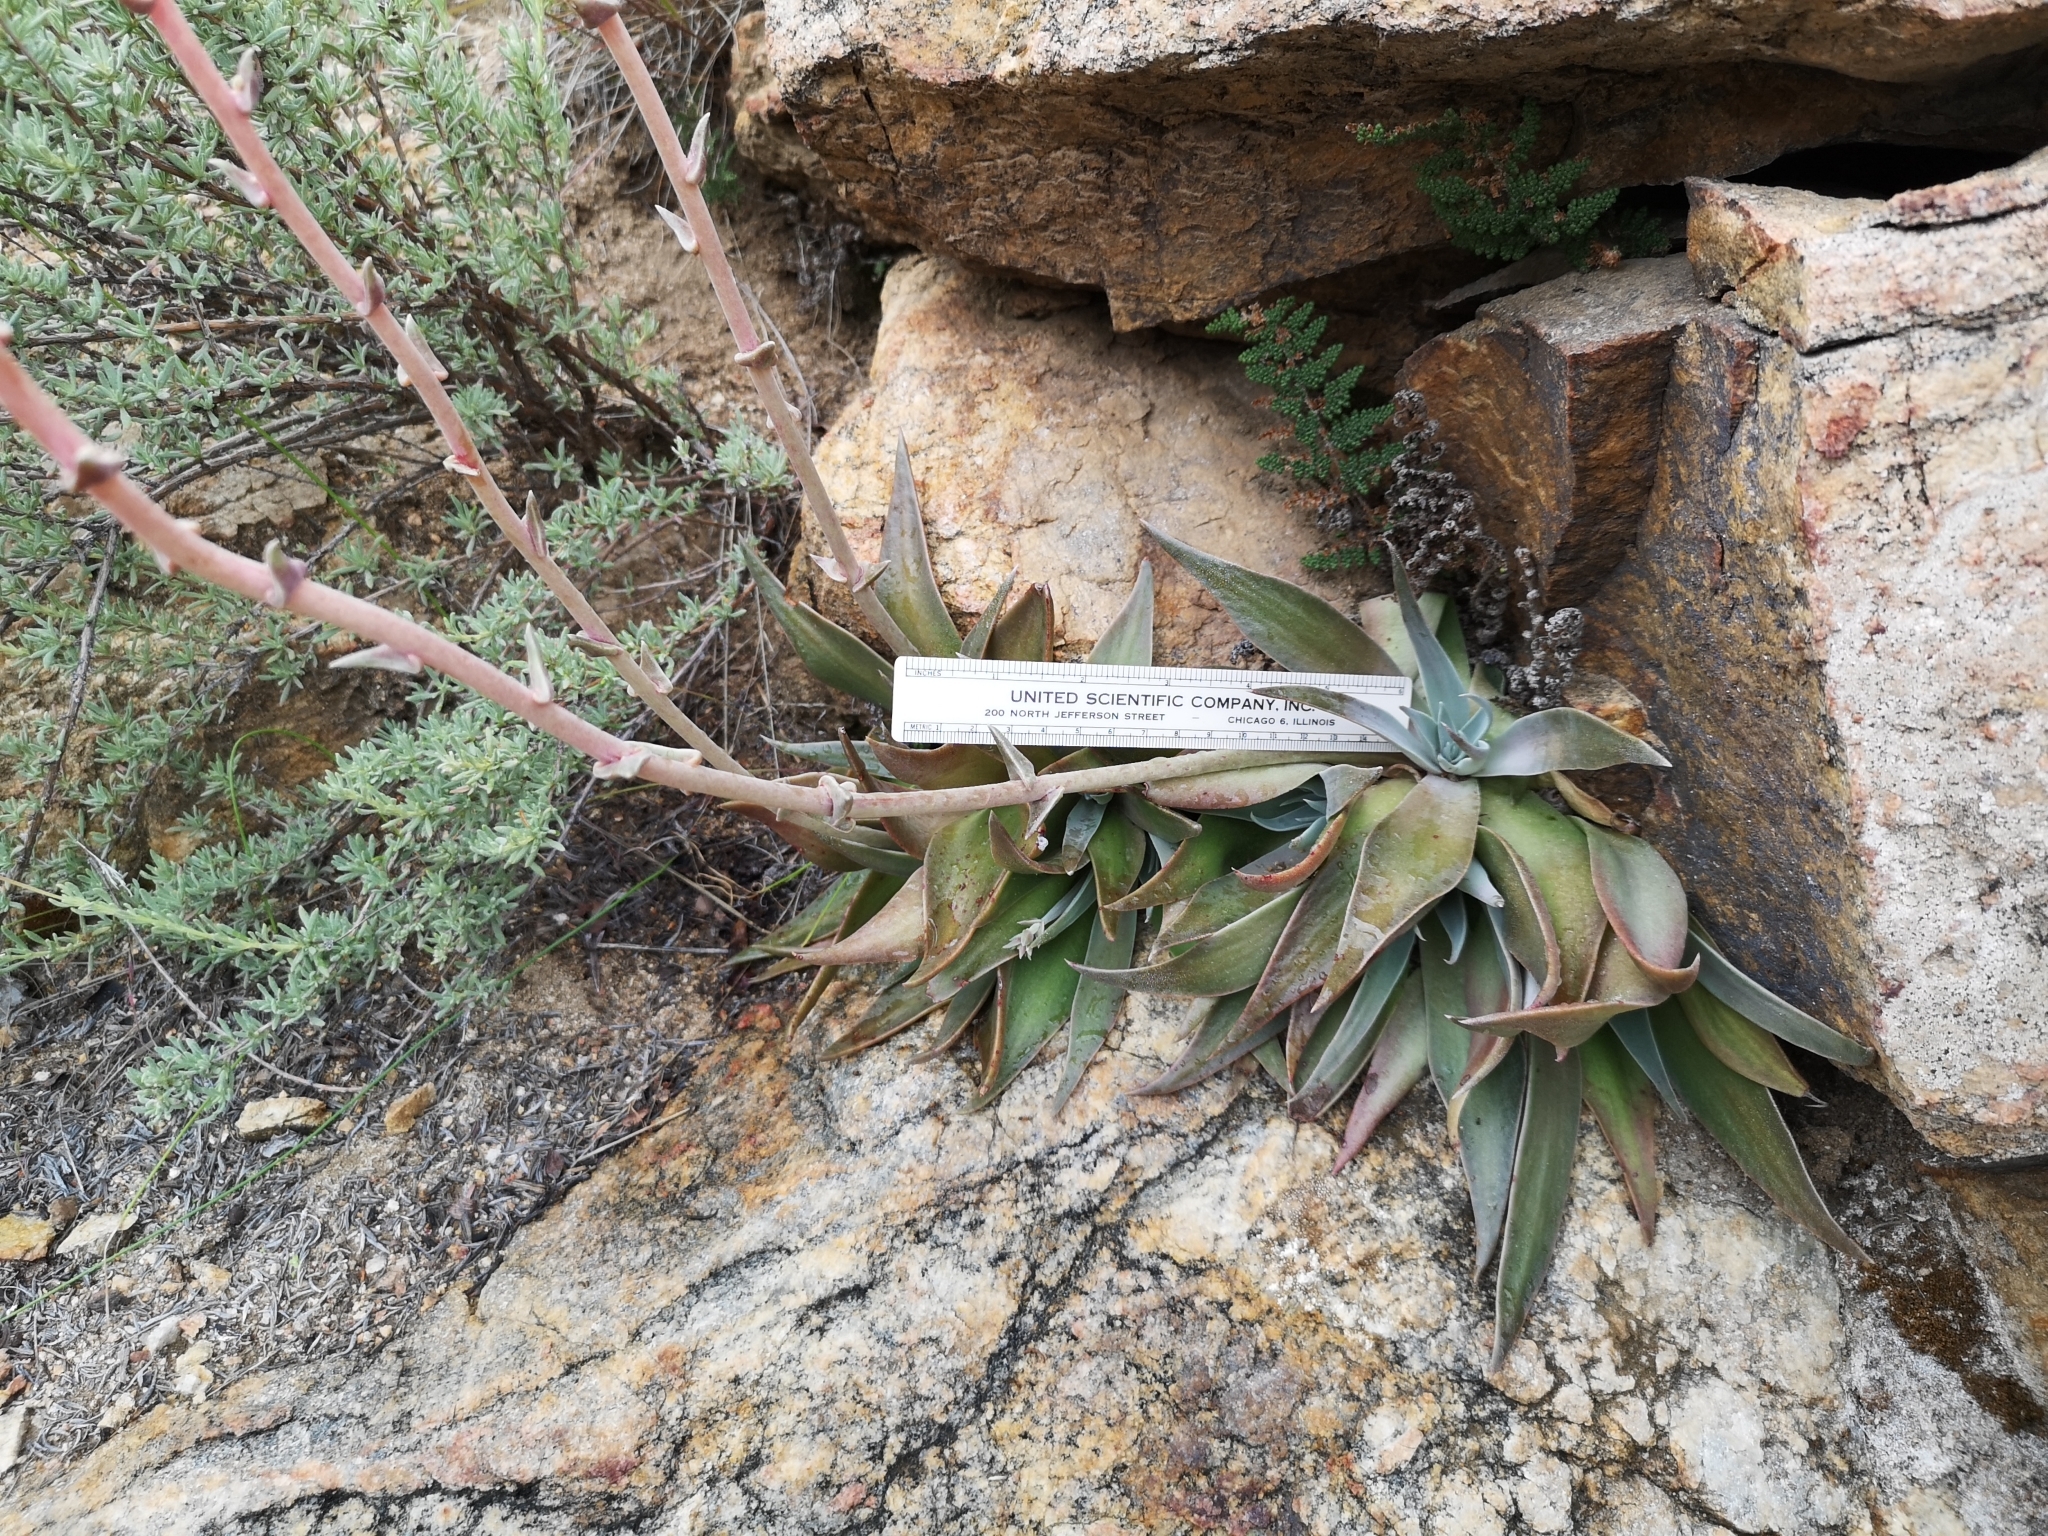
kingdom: Plantae
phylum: Tracheophyta
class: Magnoliopsida
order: Saxifragales
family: Crassulaceae
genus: Dudleya
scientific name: Dudleya lanceolata
